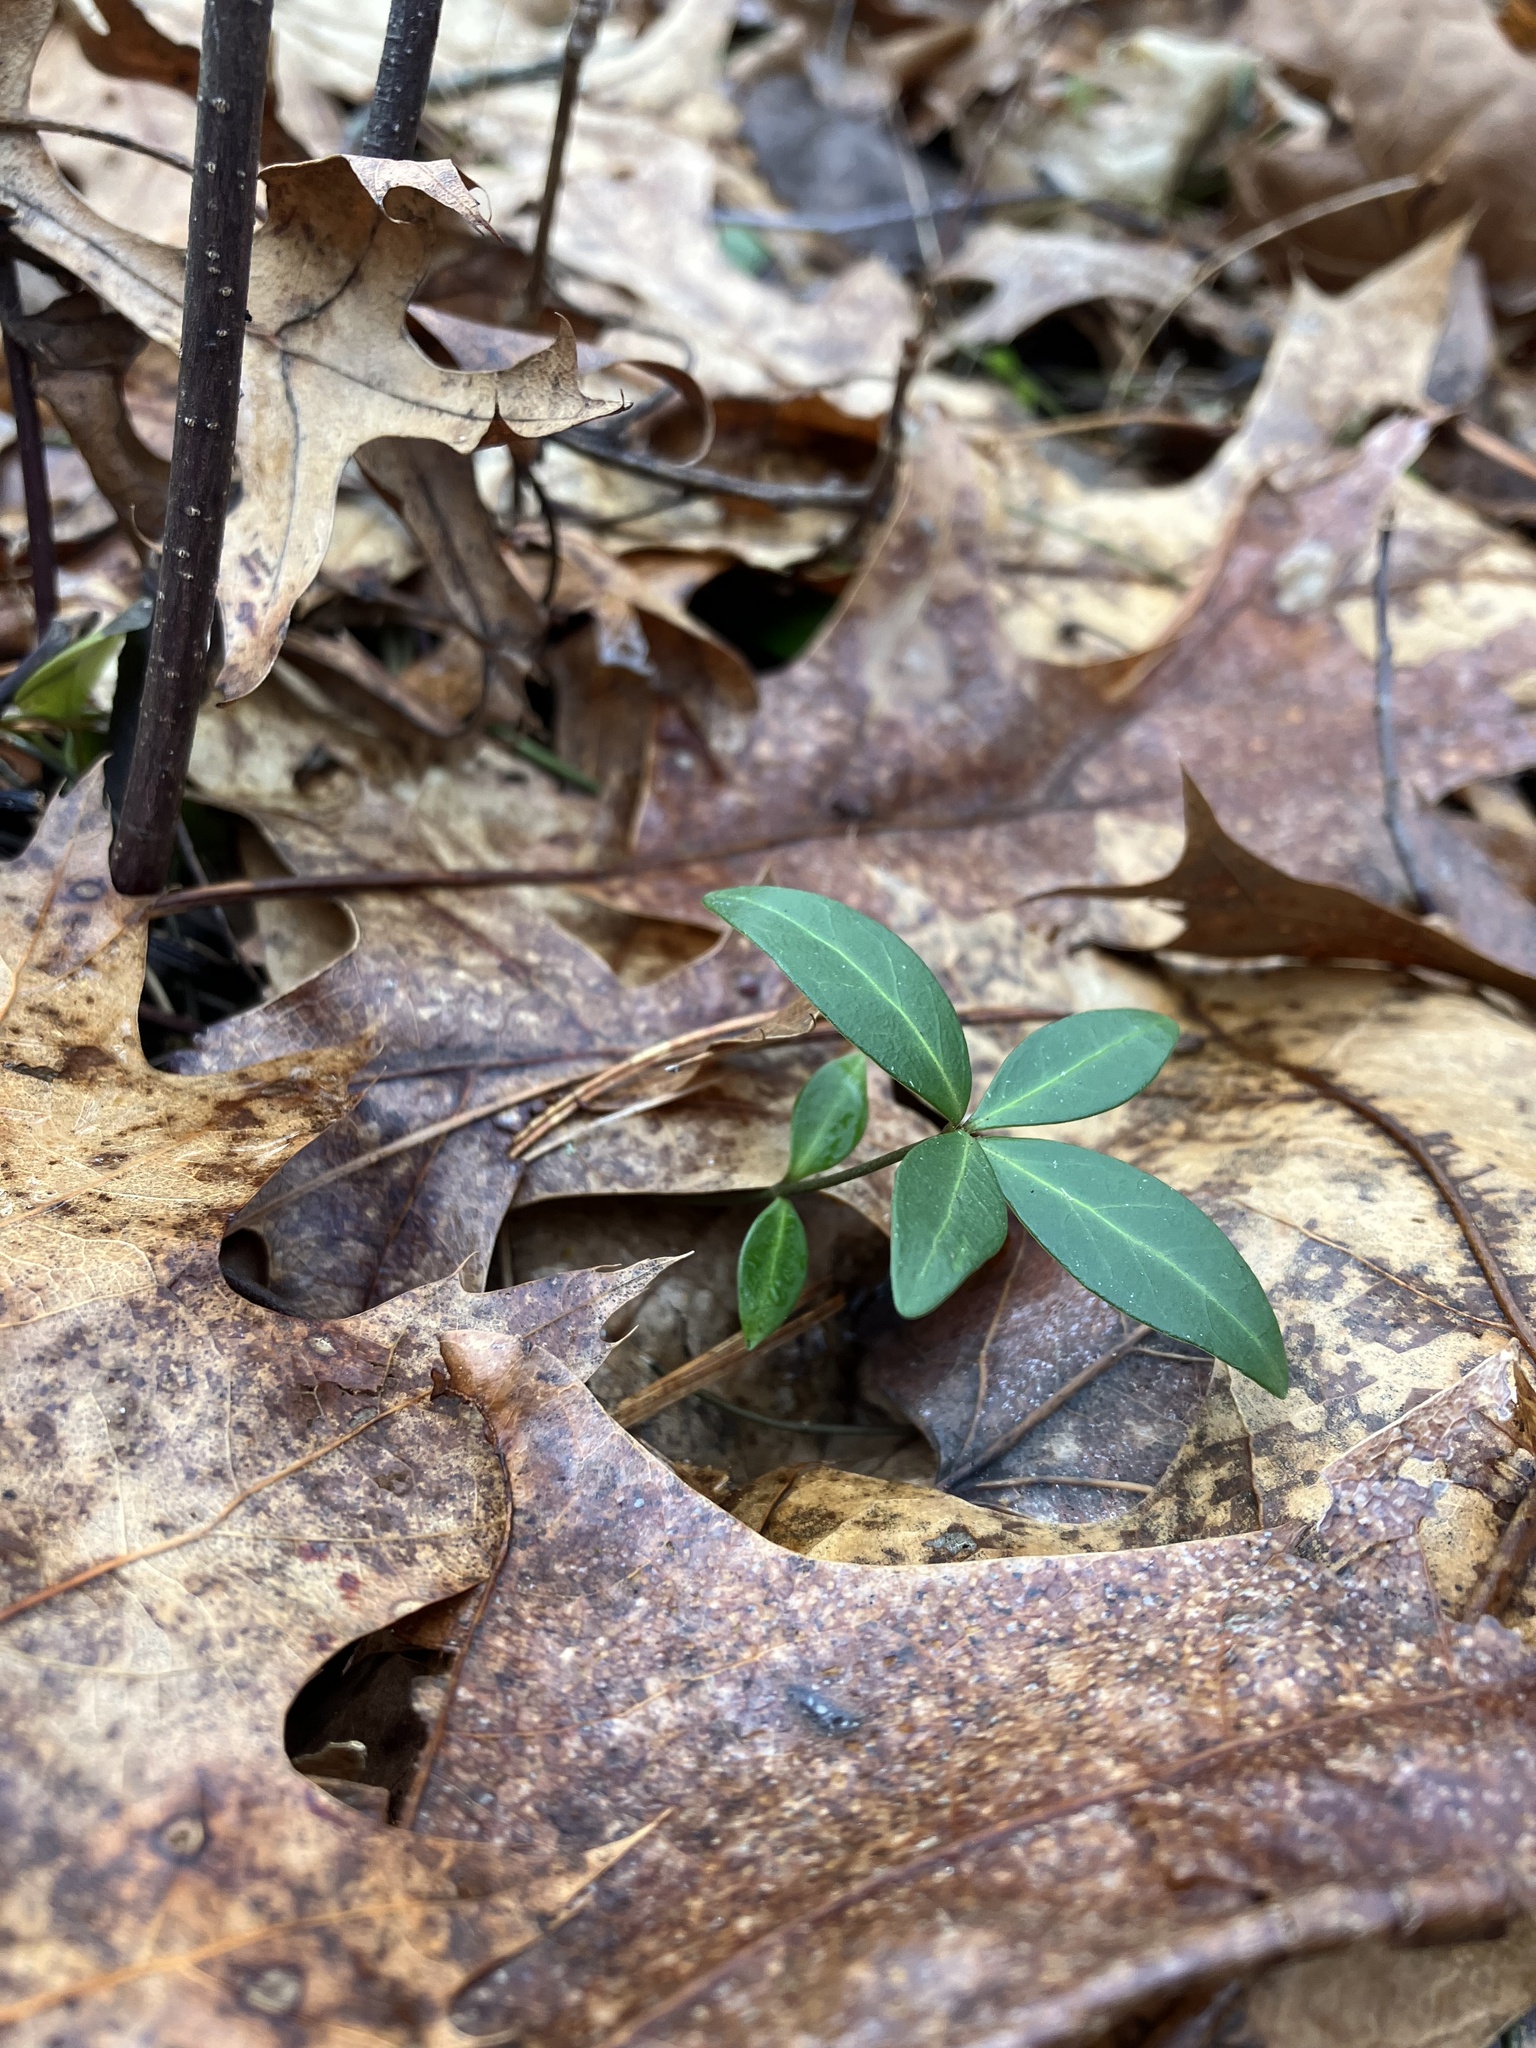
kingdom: Plantae
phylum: Tracheophyta
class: Magnoliopsida
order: Gentianales
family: Apocynaceae
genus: Vinca
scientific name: Vinca minor
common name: Lesser periwinkle
